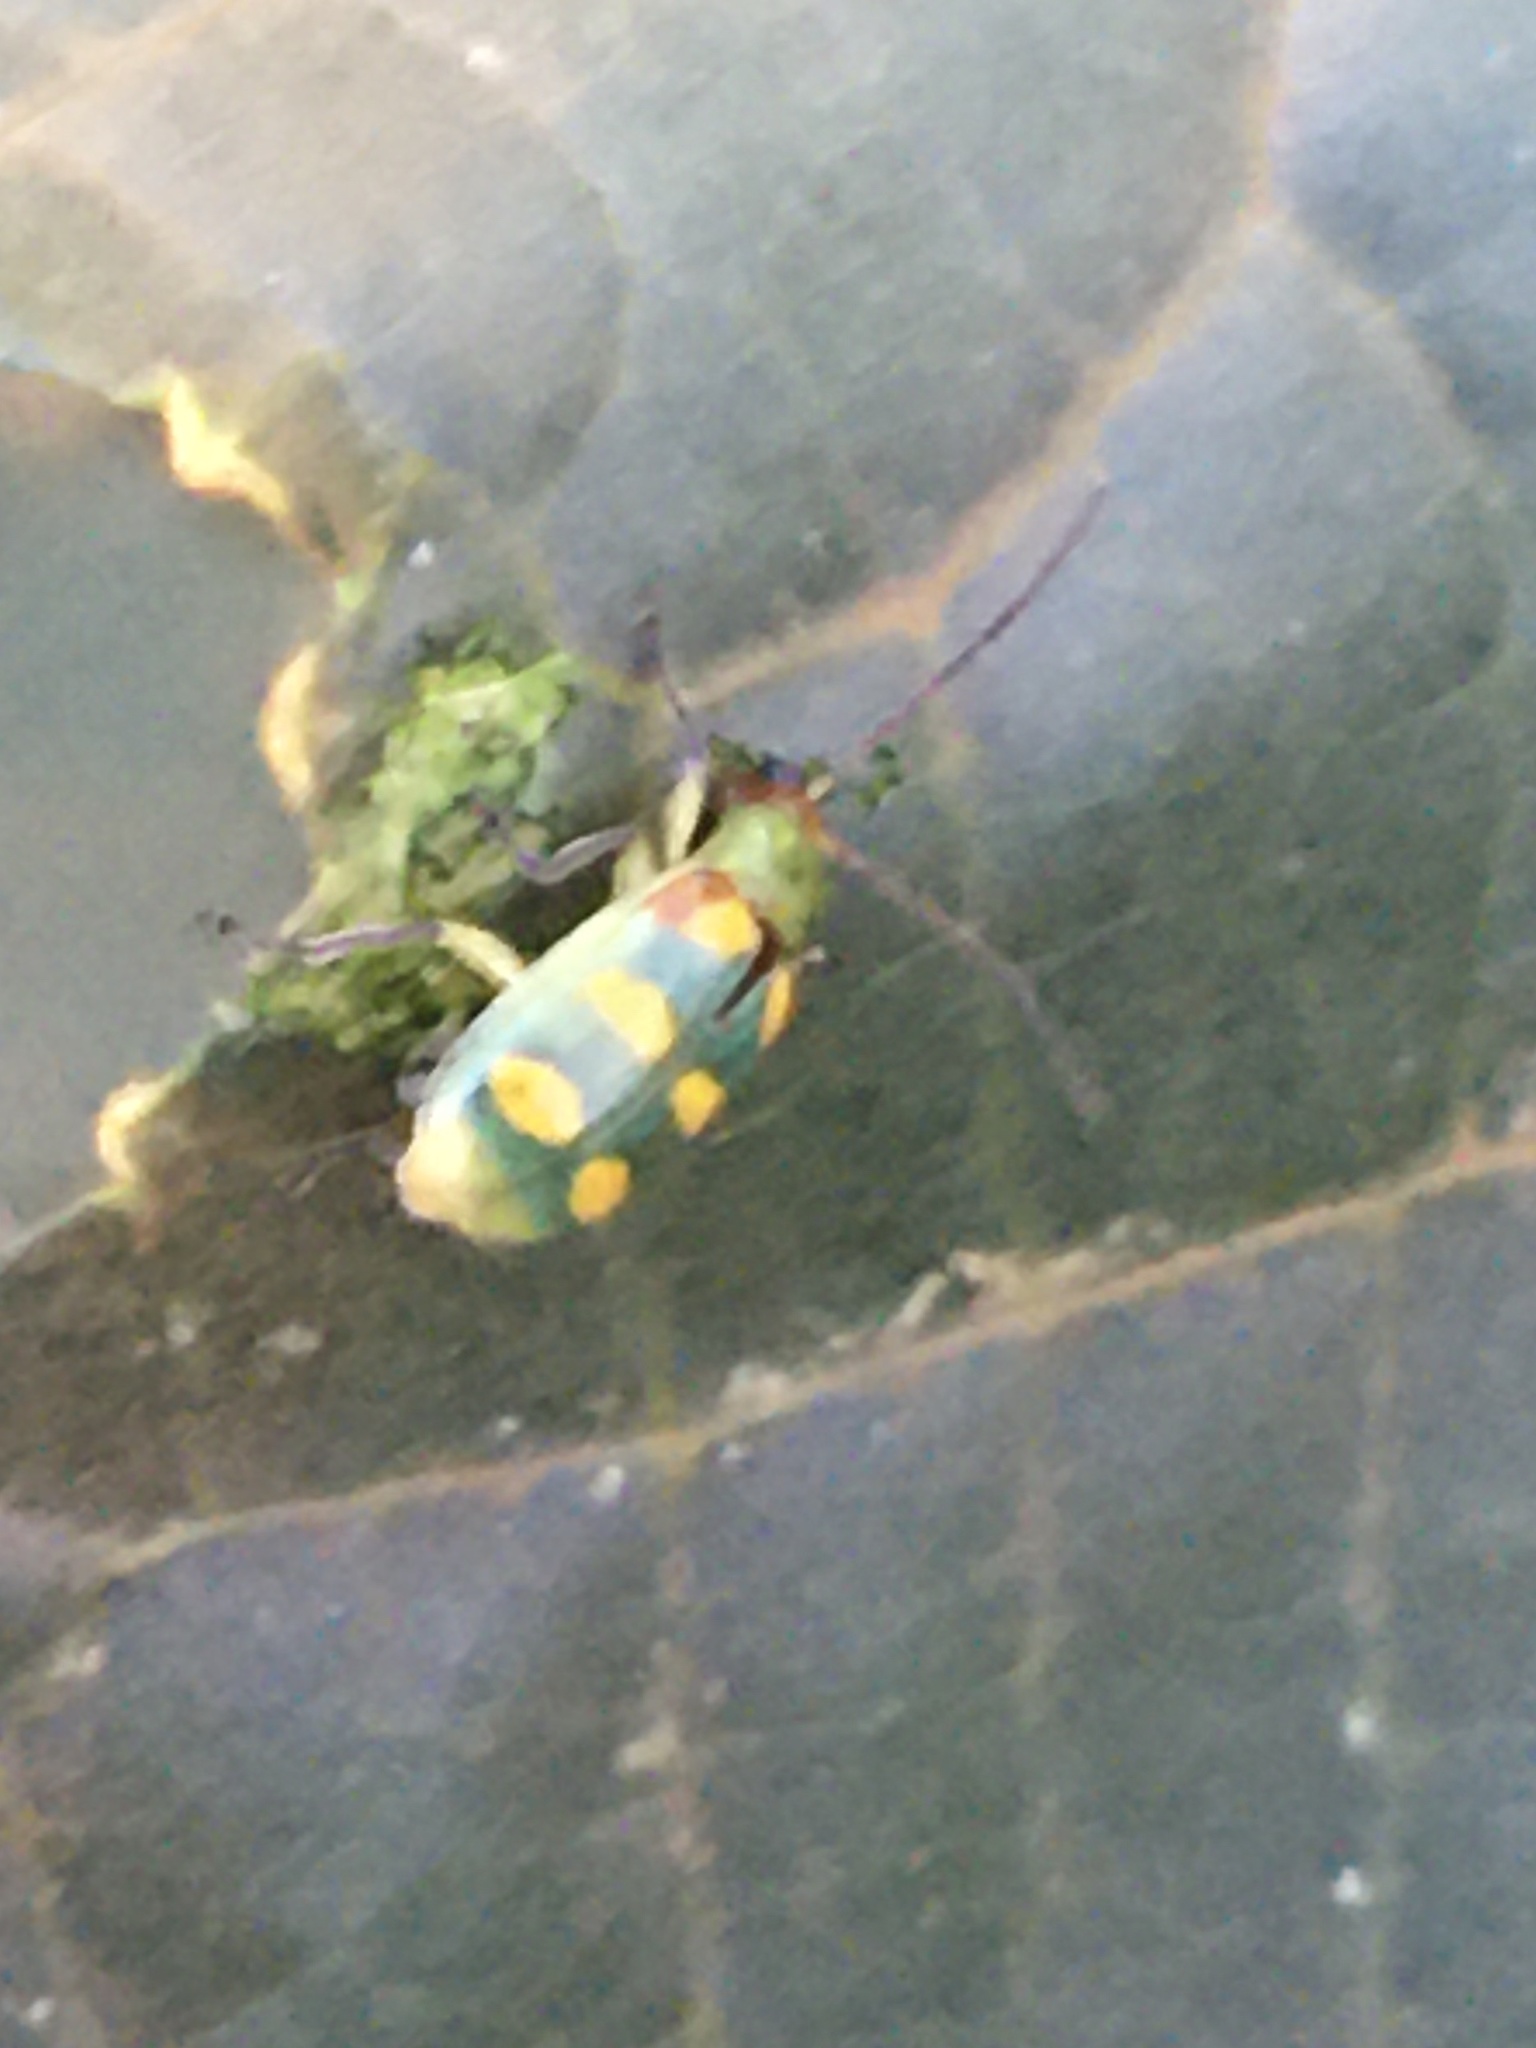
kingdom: Animalia
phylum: Arthropoda
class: Insecta
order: Coleoptera
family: Chrysomelidae
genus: Diabrotica
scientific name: Diabrotica speciosa
